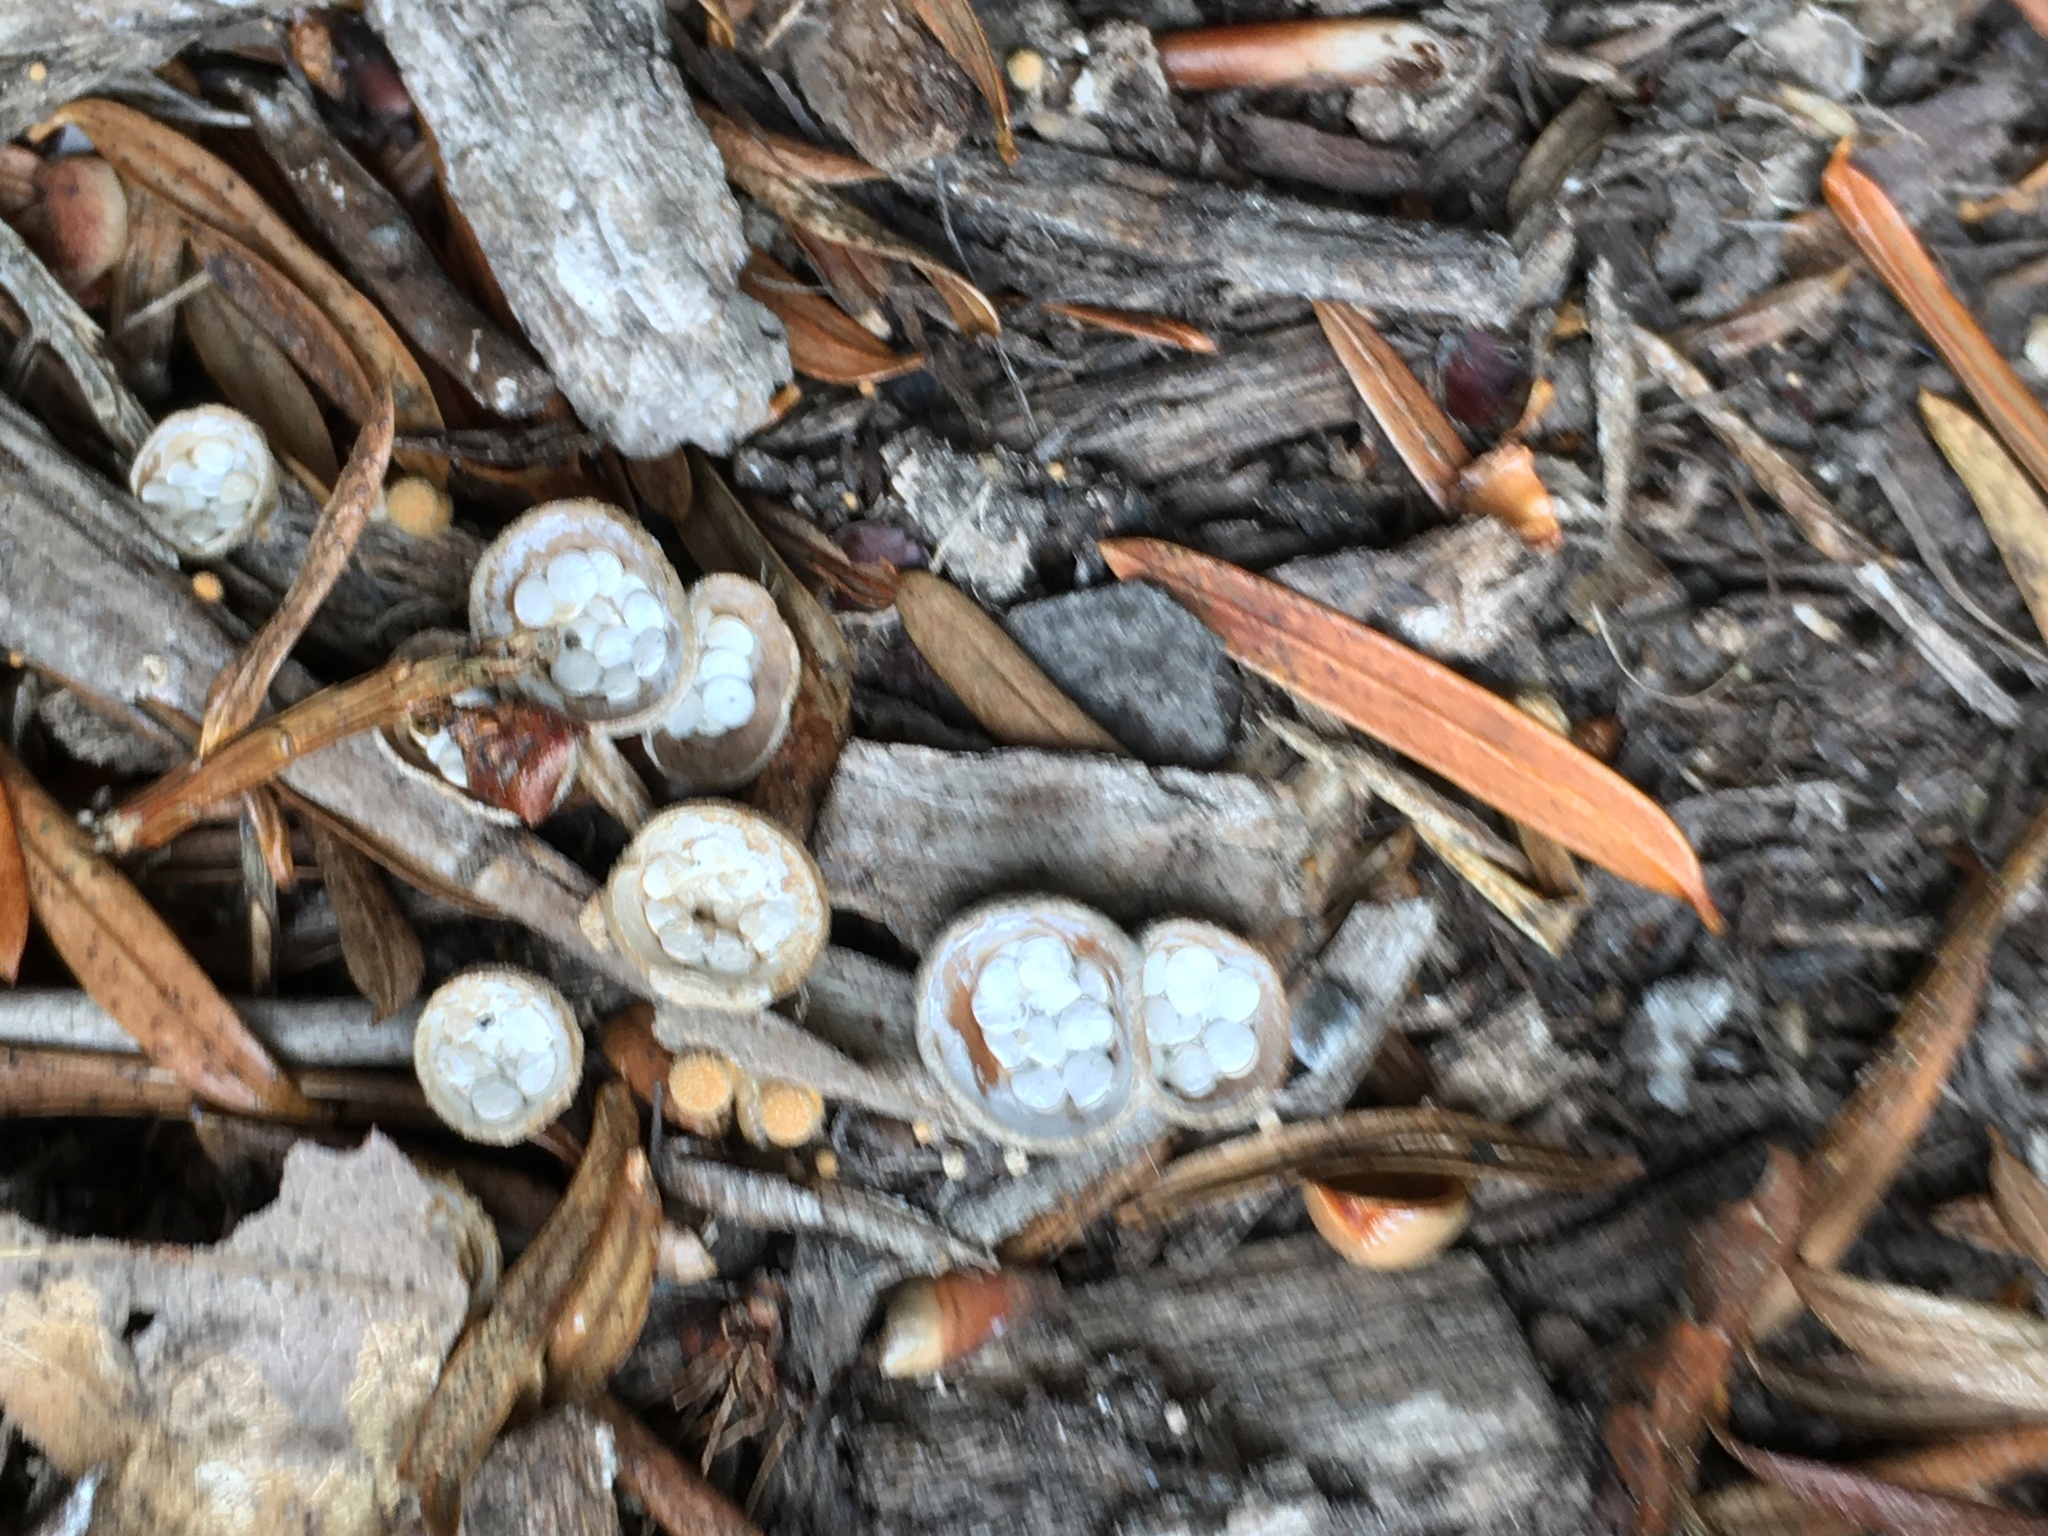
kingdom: Fungi
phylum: Basidiomycota
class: Agaricomycetes
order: Agaricales
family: Nidulariaceae
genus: Crucibulum
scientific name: Crucibulum laeve
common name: Common bird's nest
